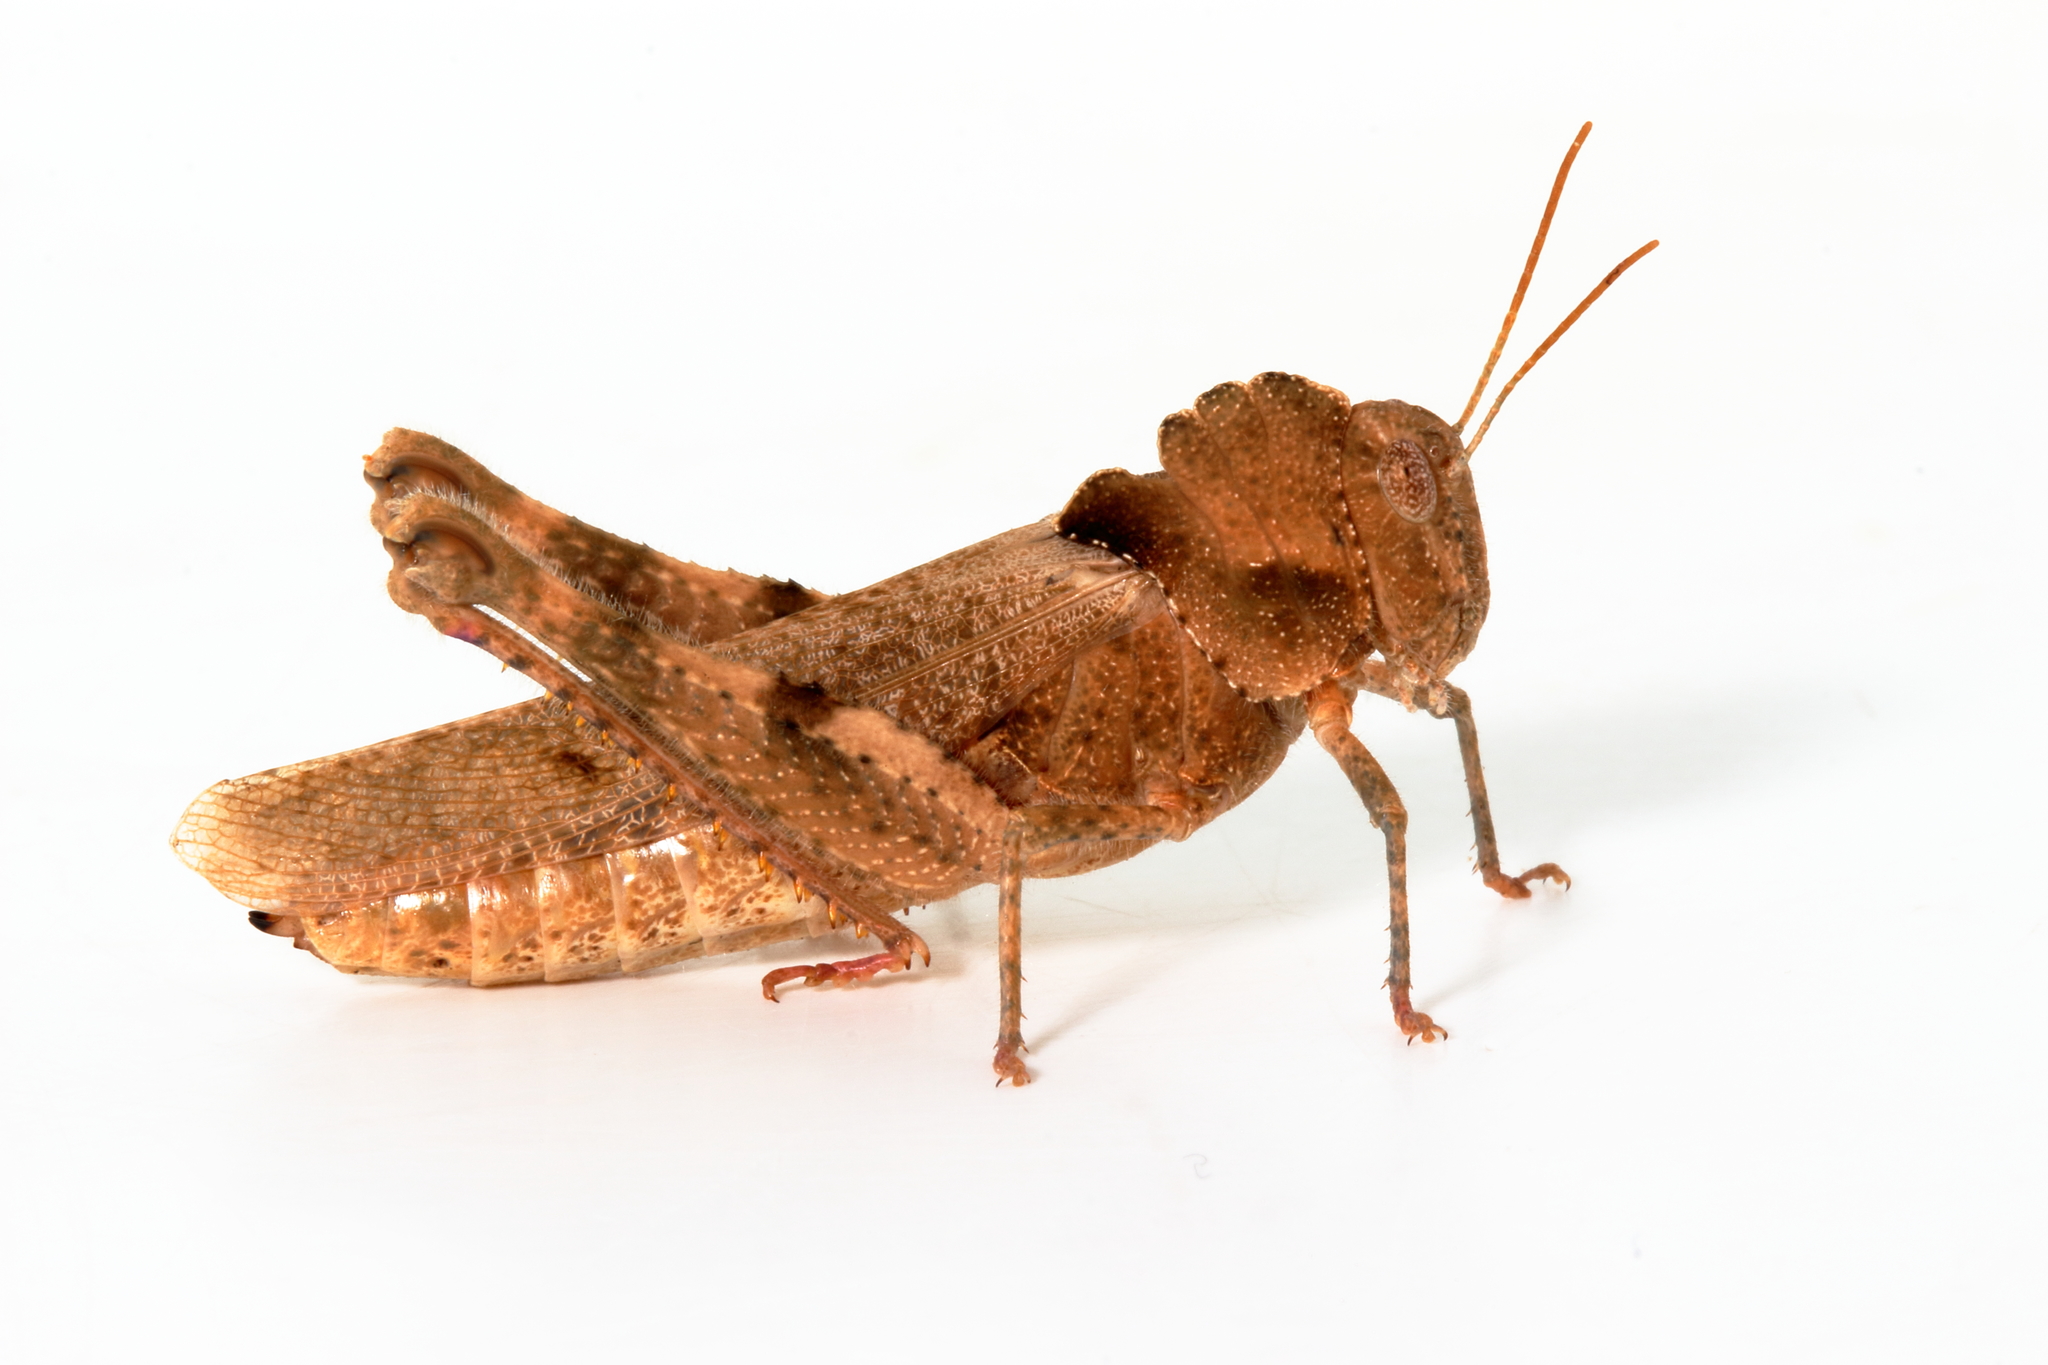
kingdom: Animalia
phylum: Arthropoda
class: Insecta
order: Orthoptera
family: Acrididae
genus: Ecphantus
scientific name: Ecphantus quadrilobus
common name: Crested tooth grinder
